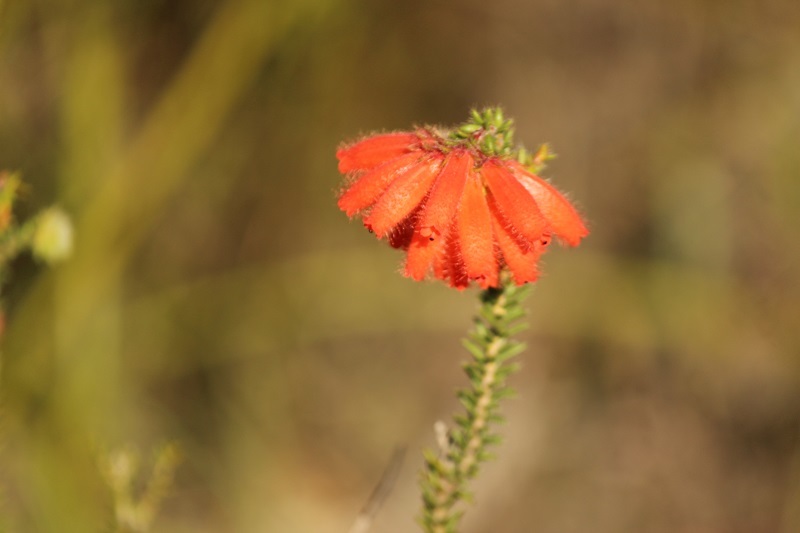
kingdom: Plantae
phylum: Tracheophyta
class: Magnoliopsida
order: Ericales
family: Ericaceae
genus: Erica
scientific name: Erica cerinthoides
